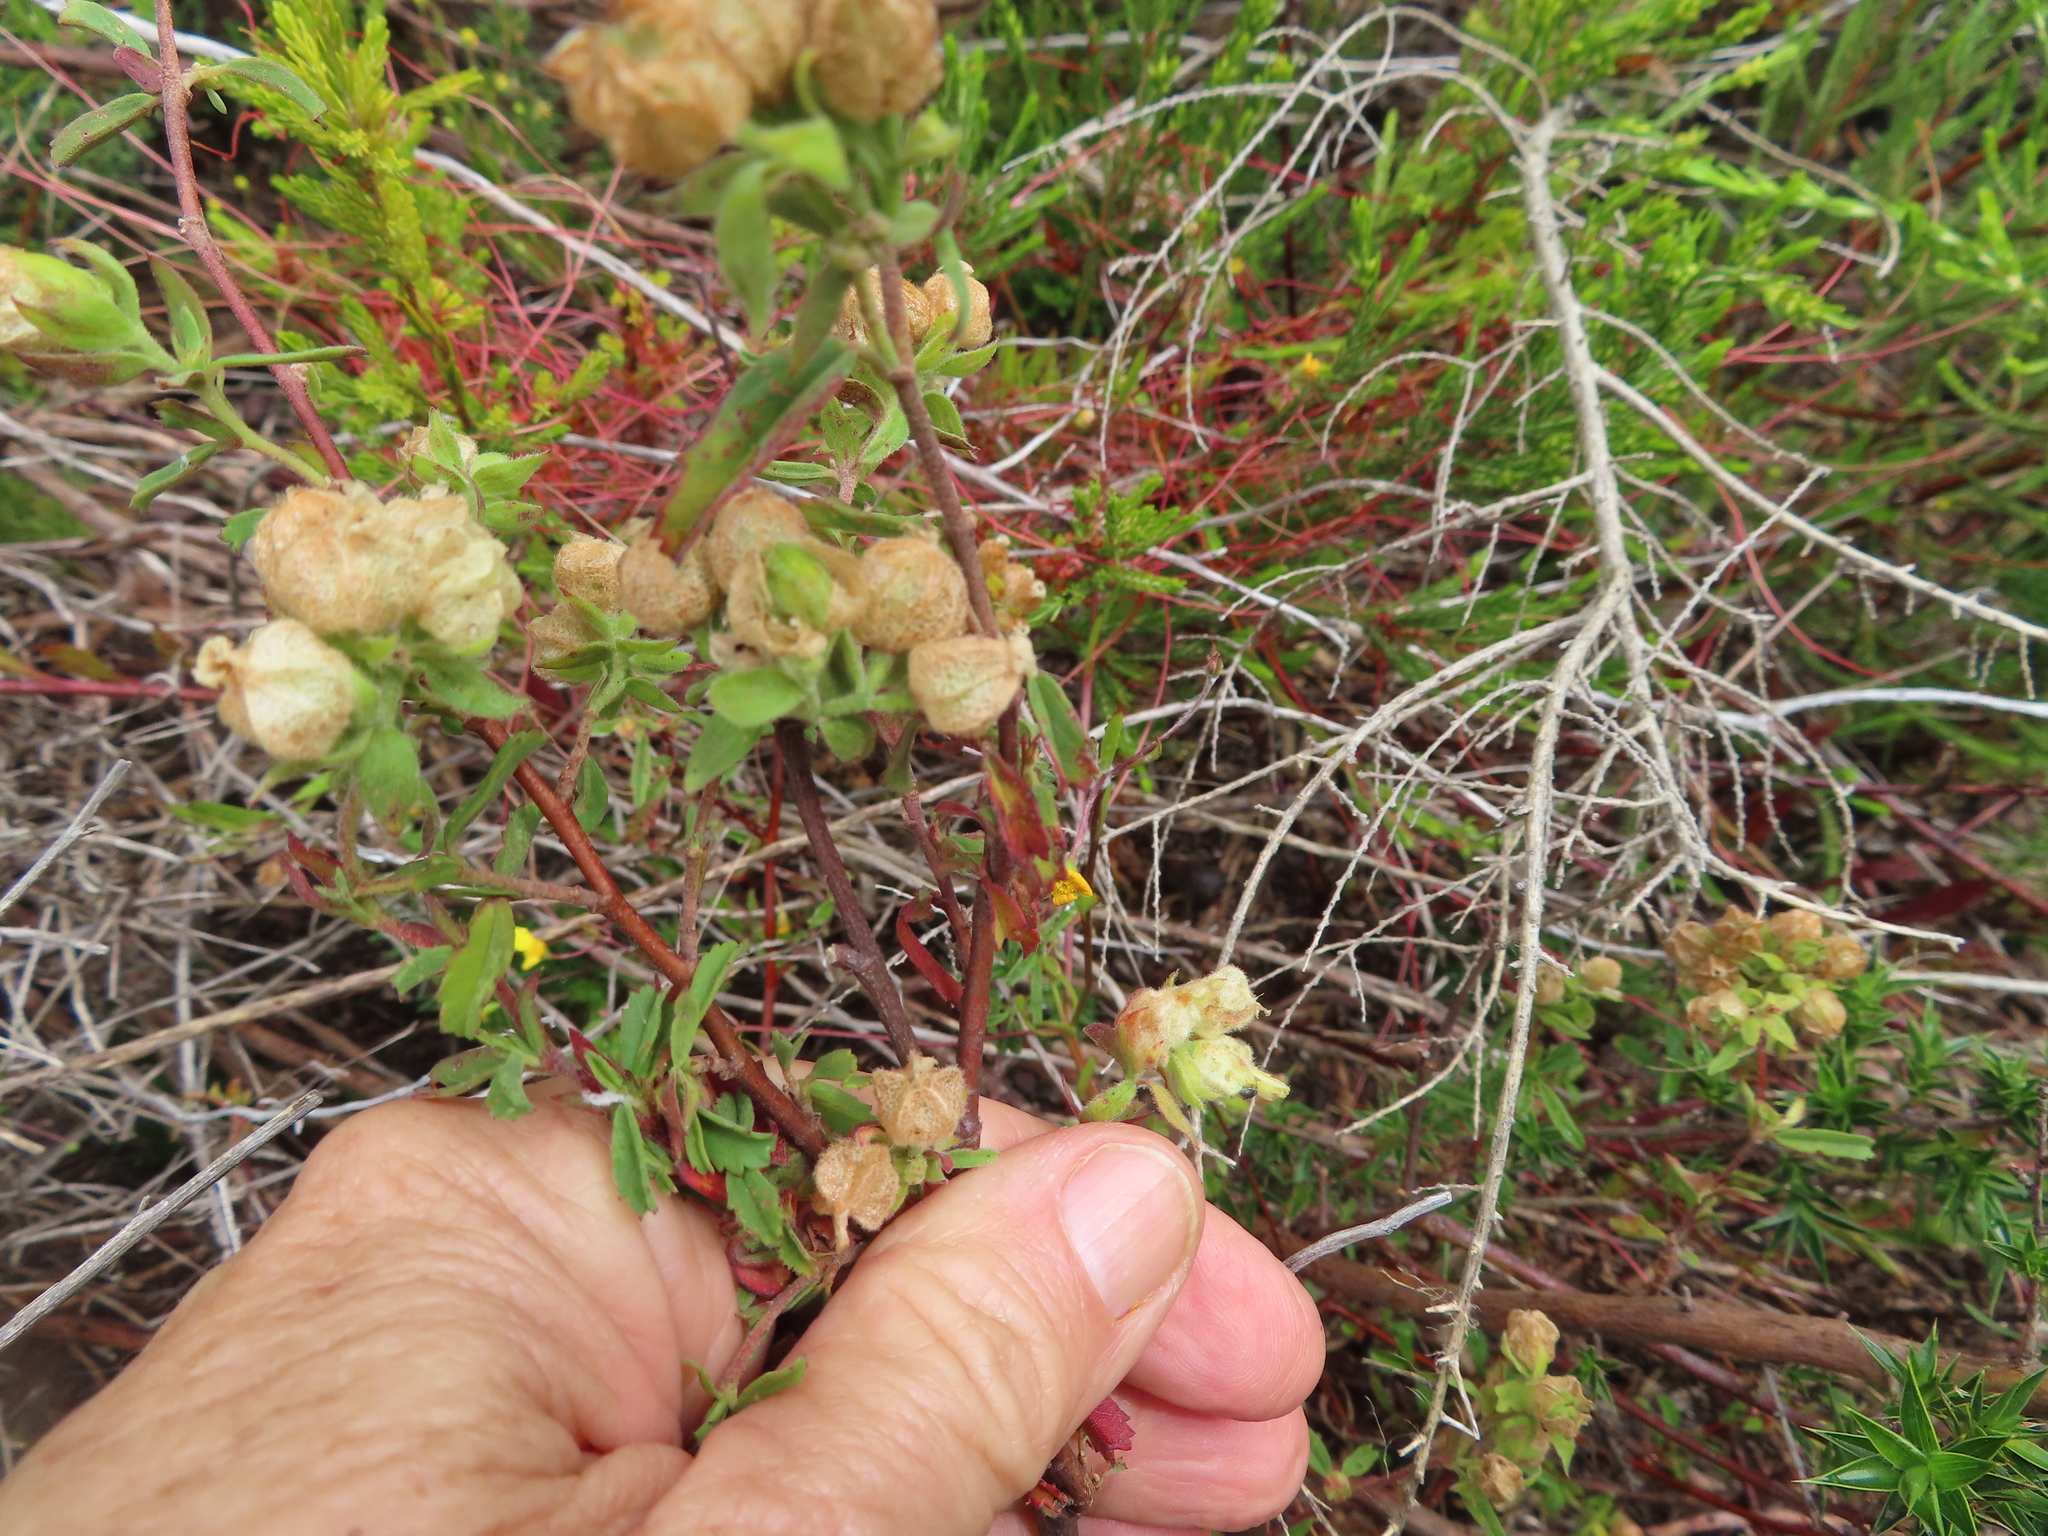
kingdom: Plantae
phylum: Tracheophyta
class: Magnoliopsida
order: Malvales
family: Malvaceae
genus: Hermannia
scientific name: Hermannia hyssopifolia
